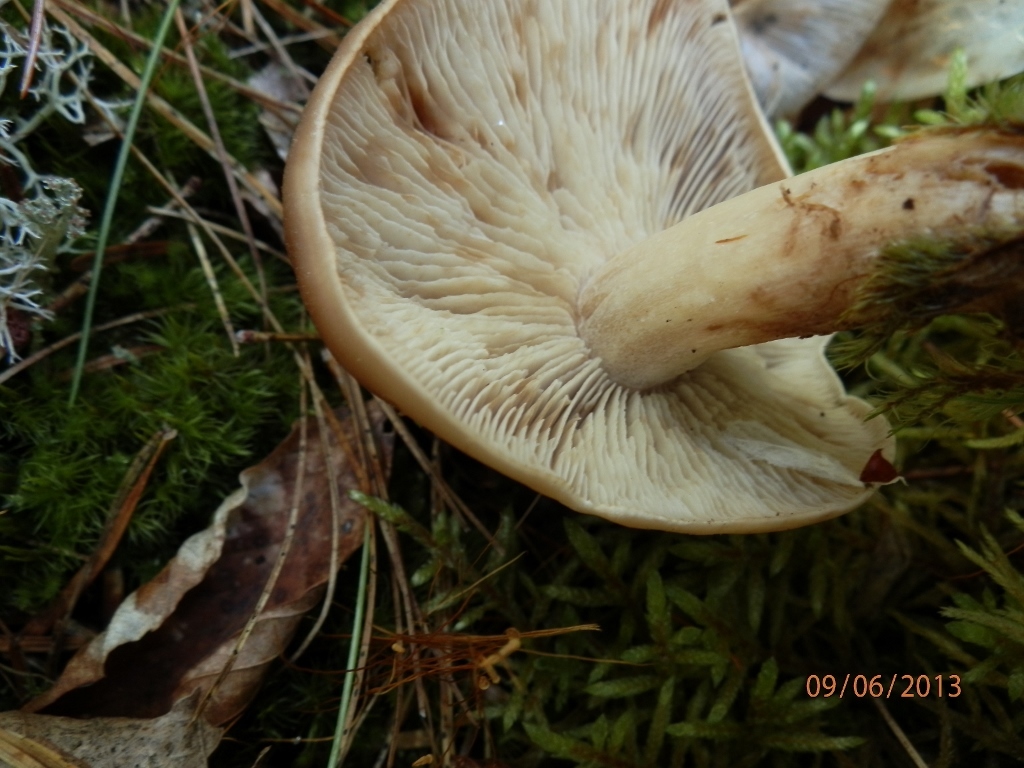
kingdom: Fungi
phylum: Basidiomycota
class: Agaricomycetes
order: Agaricales
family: Omphalotaceae
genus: Rhodocollybia
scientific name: Rhodocollybia butyracea
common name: Butter cap
